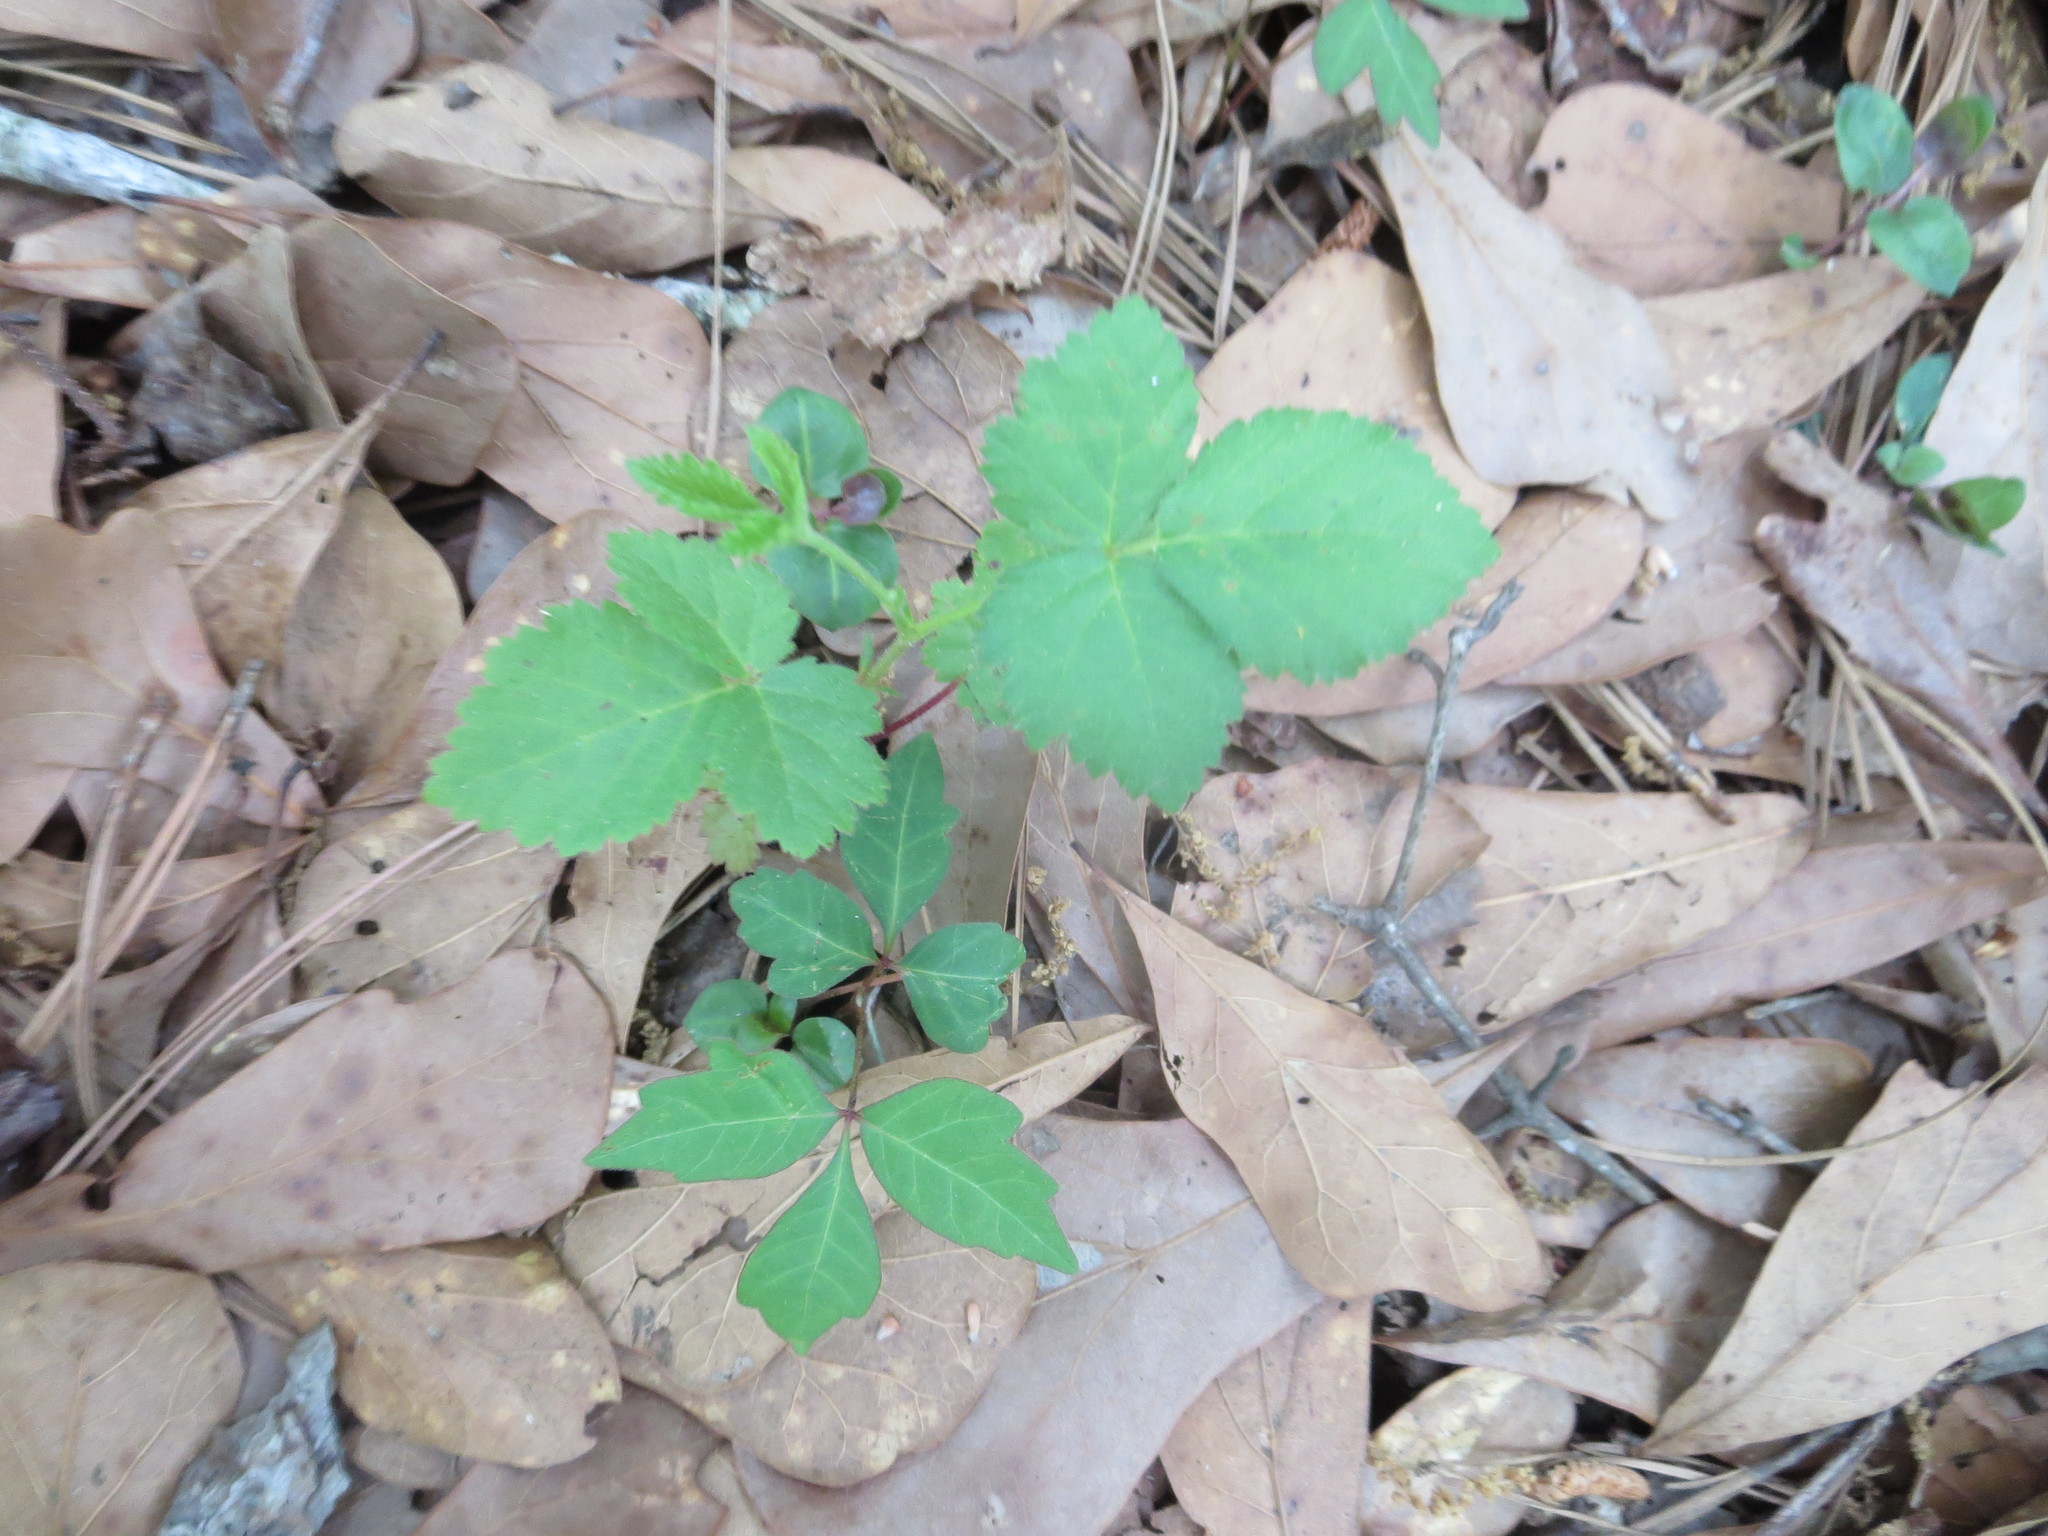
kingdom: Plantae
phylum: Tracheophyta
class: Magnoliopsida
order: Sapindales
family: Anacardiaceae
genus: Toxicodendron
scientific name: Toxicodendron radicans
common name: Poison ivy
